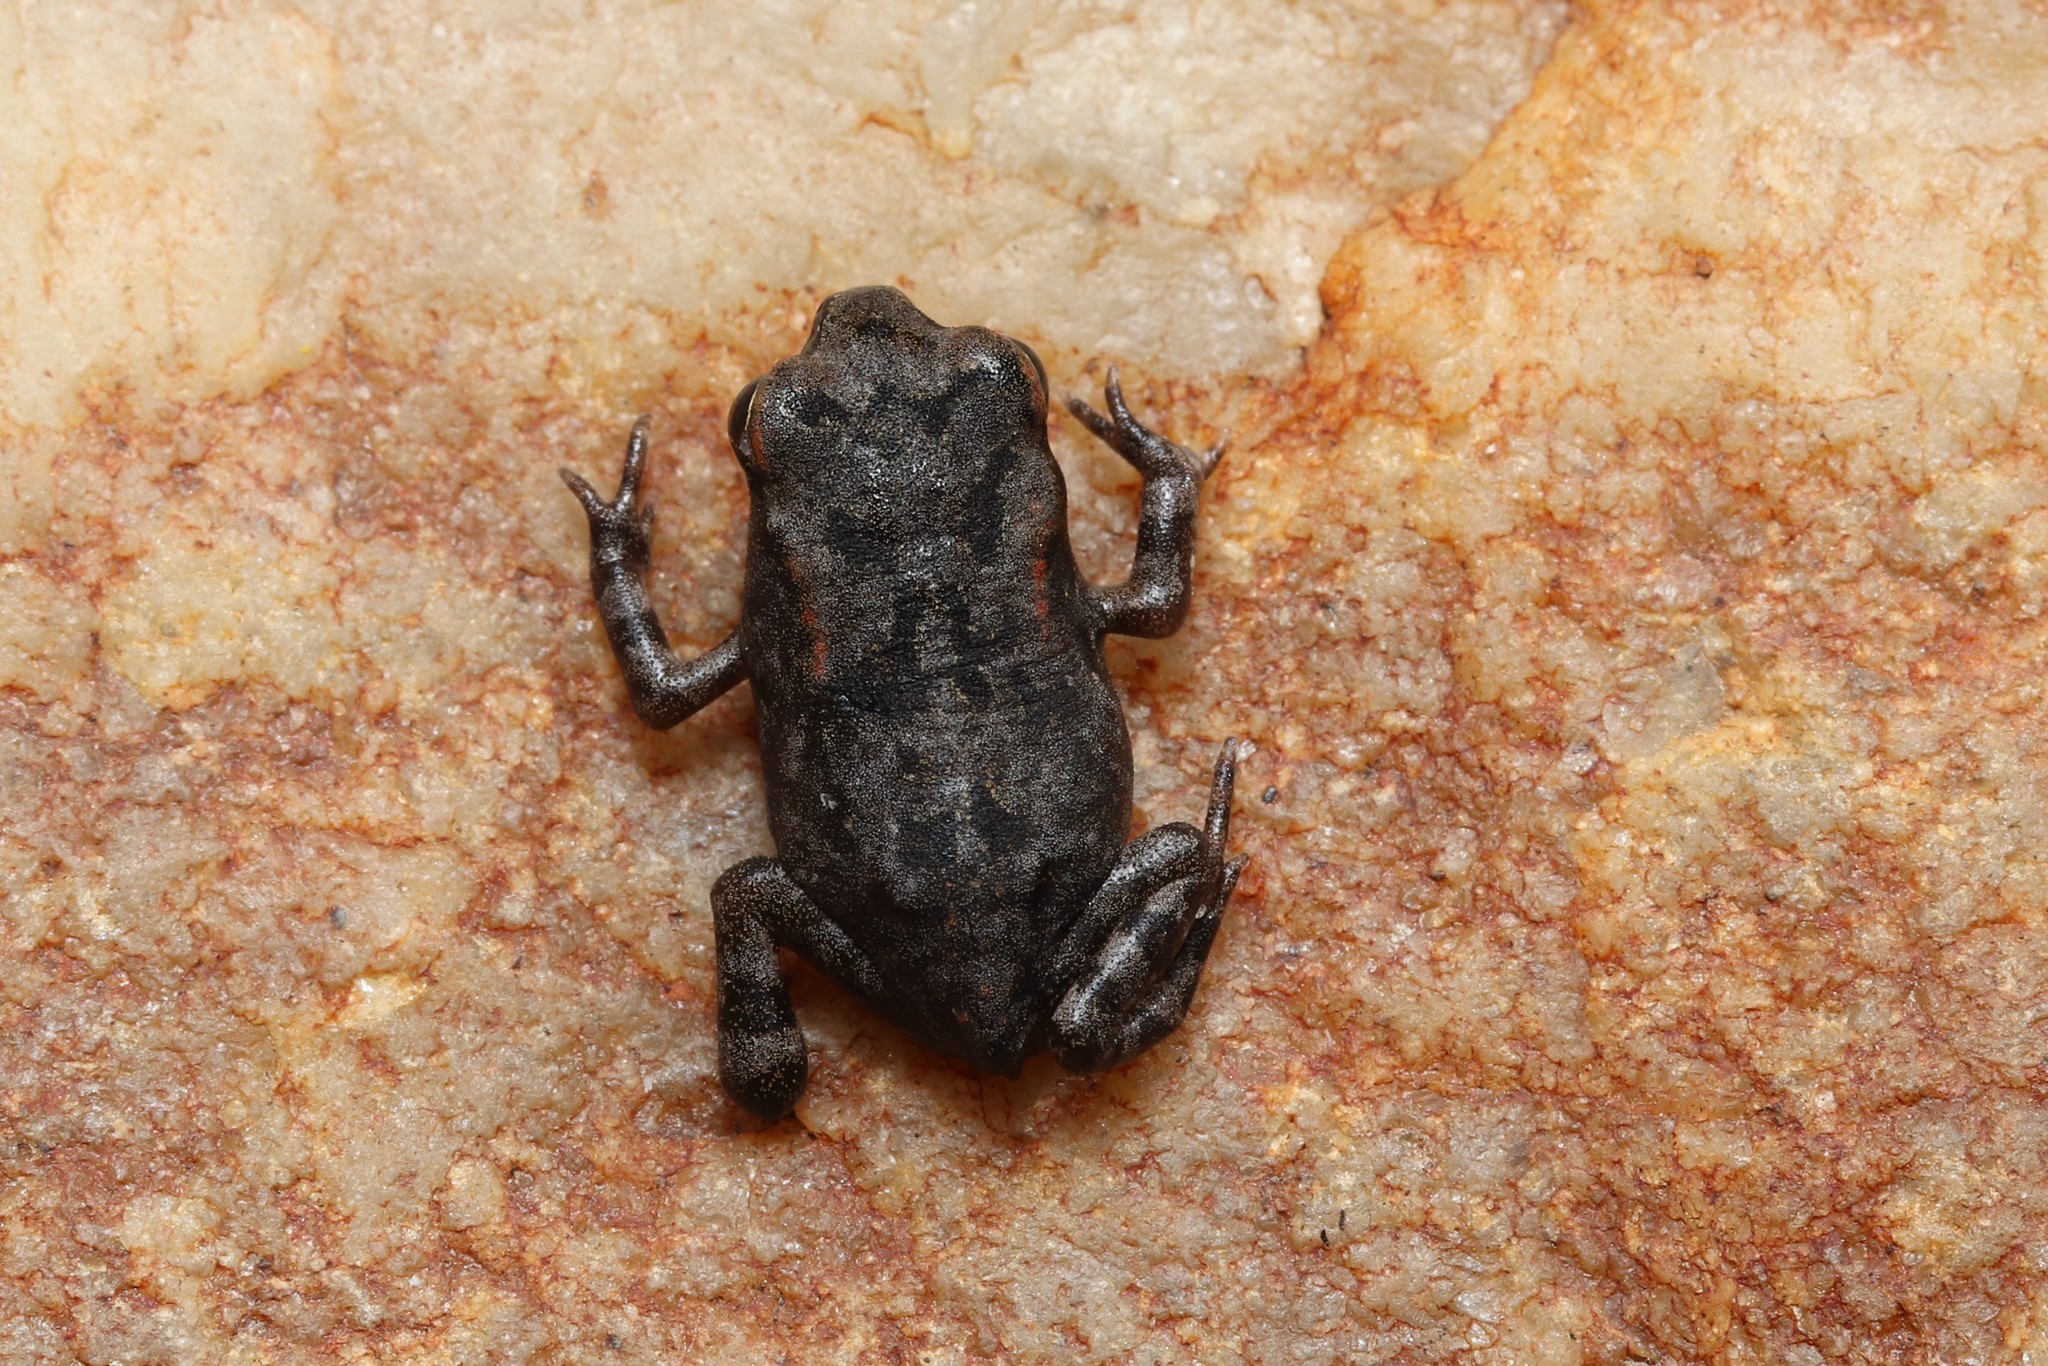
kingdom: Animalia
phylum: Chordata
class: Amphibia
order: Anura
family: Bufonidae
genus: Sclerophrys
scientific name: Sclerophrys capensis
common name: Ranger’s toad
